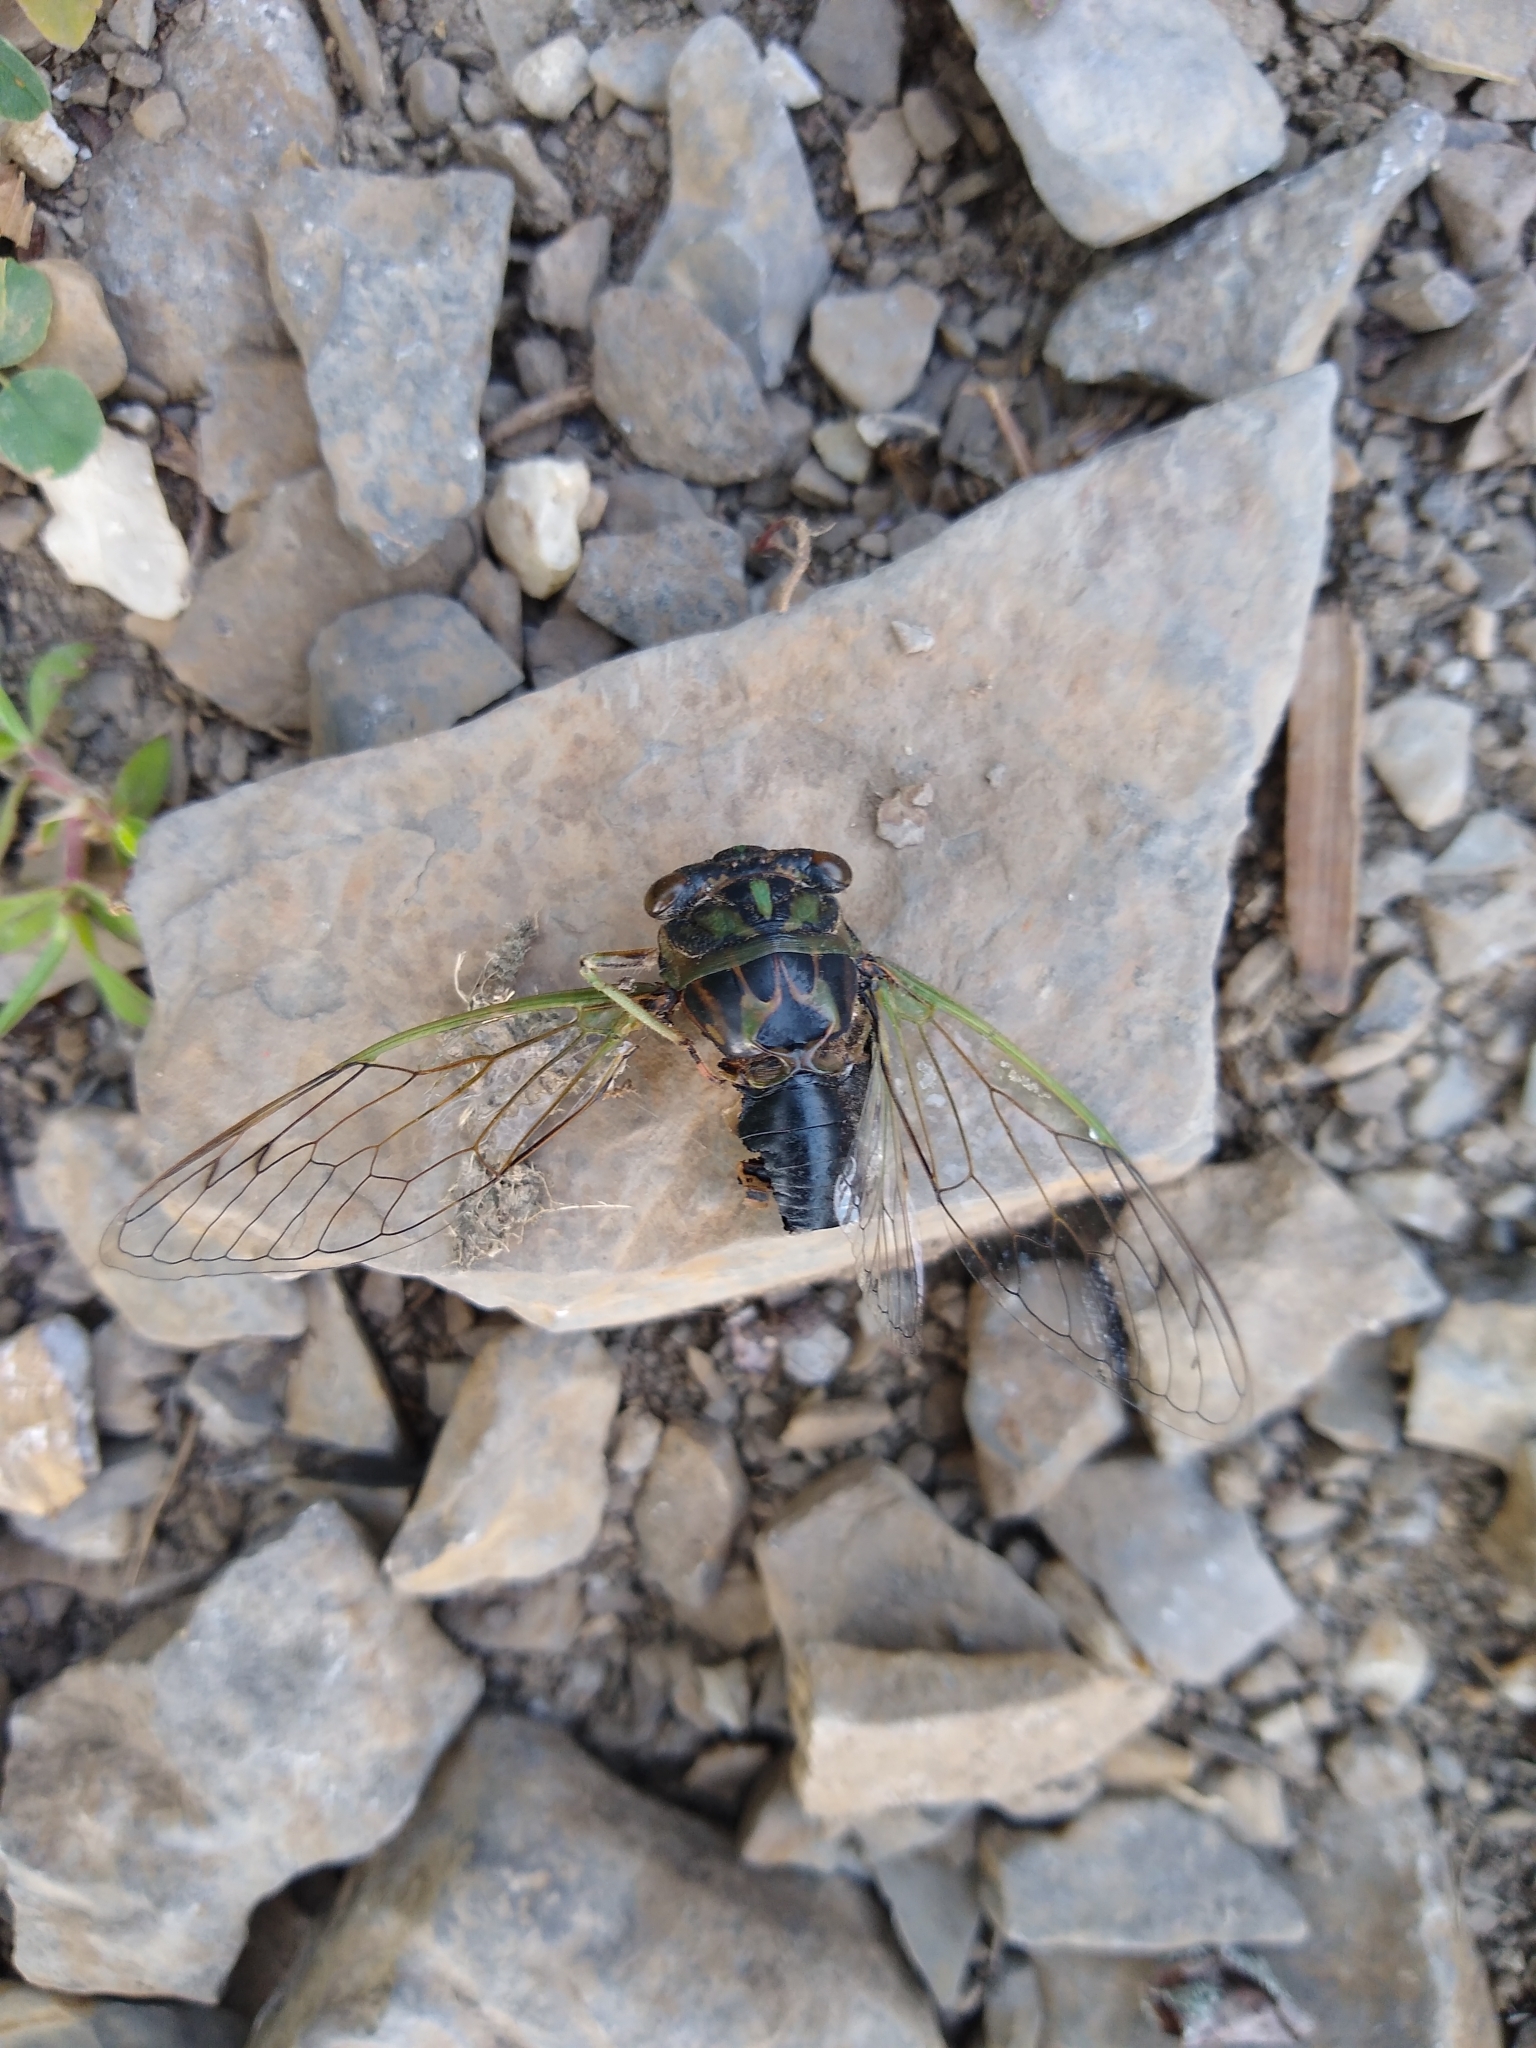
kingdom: Animalia
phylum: Arthropoda
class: Insecta
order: Hemiptera
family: Cicadidae
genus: Neotibicen
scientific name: Neotibicen canicularis
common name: God-day cicada
